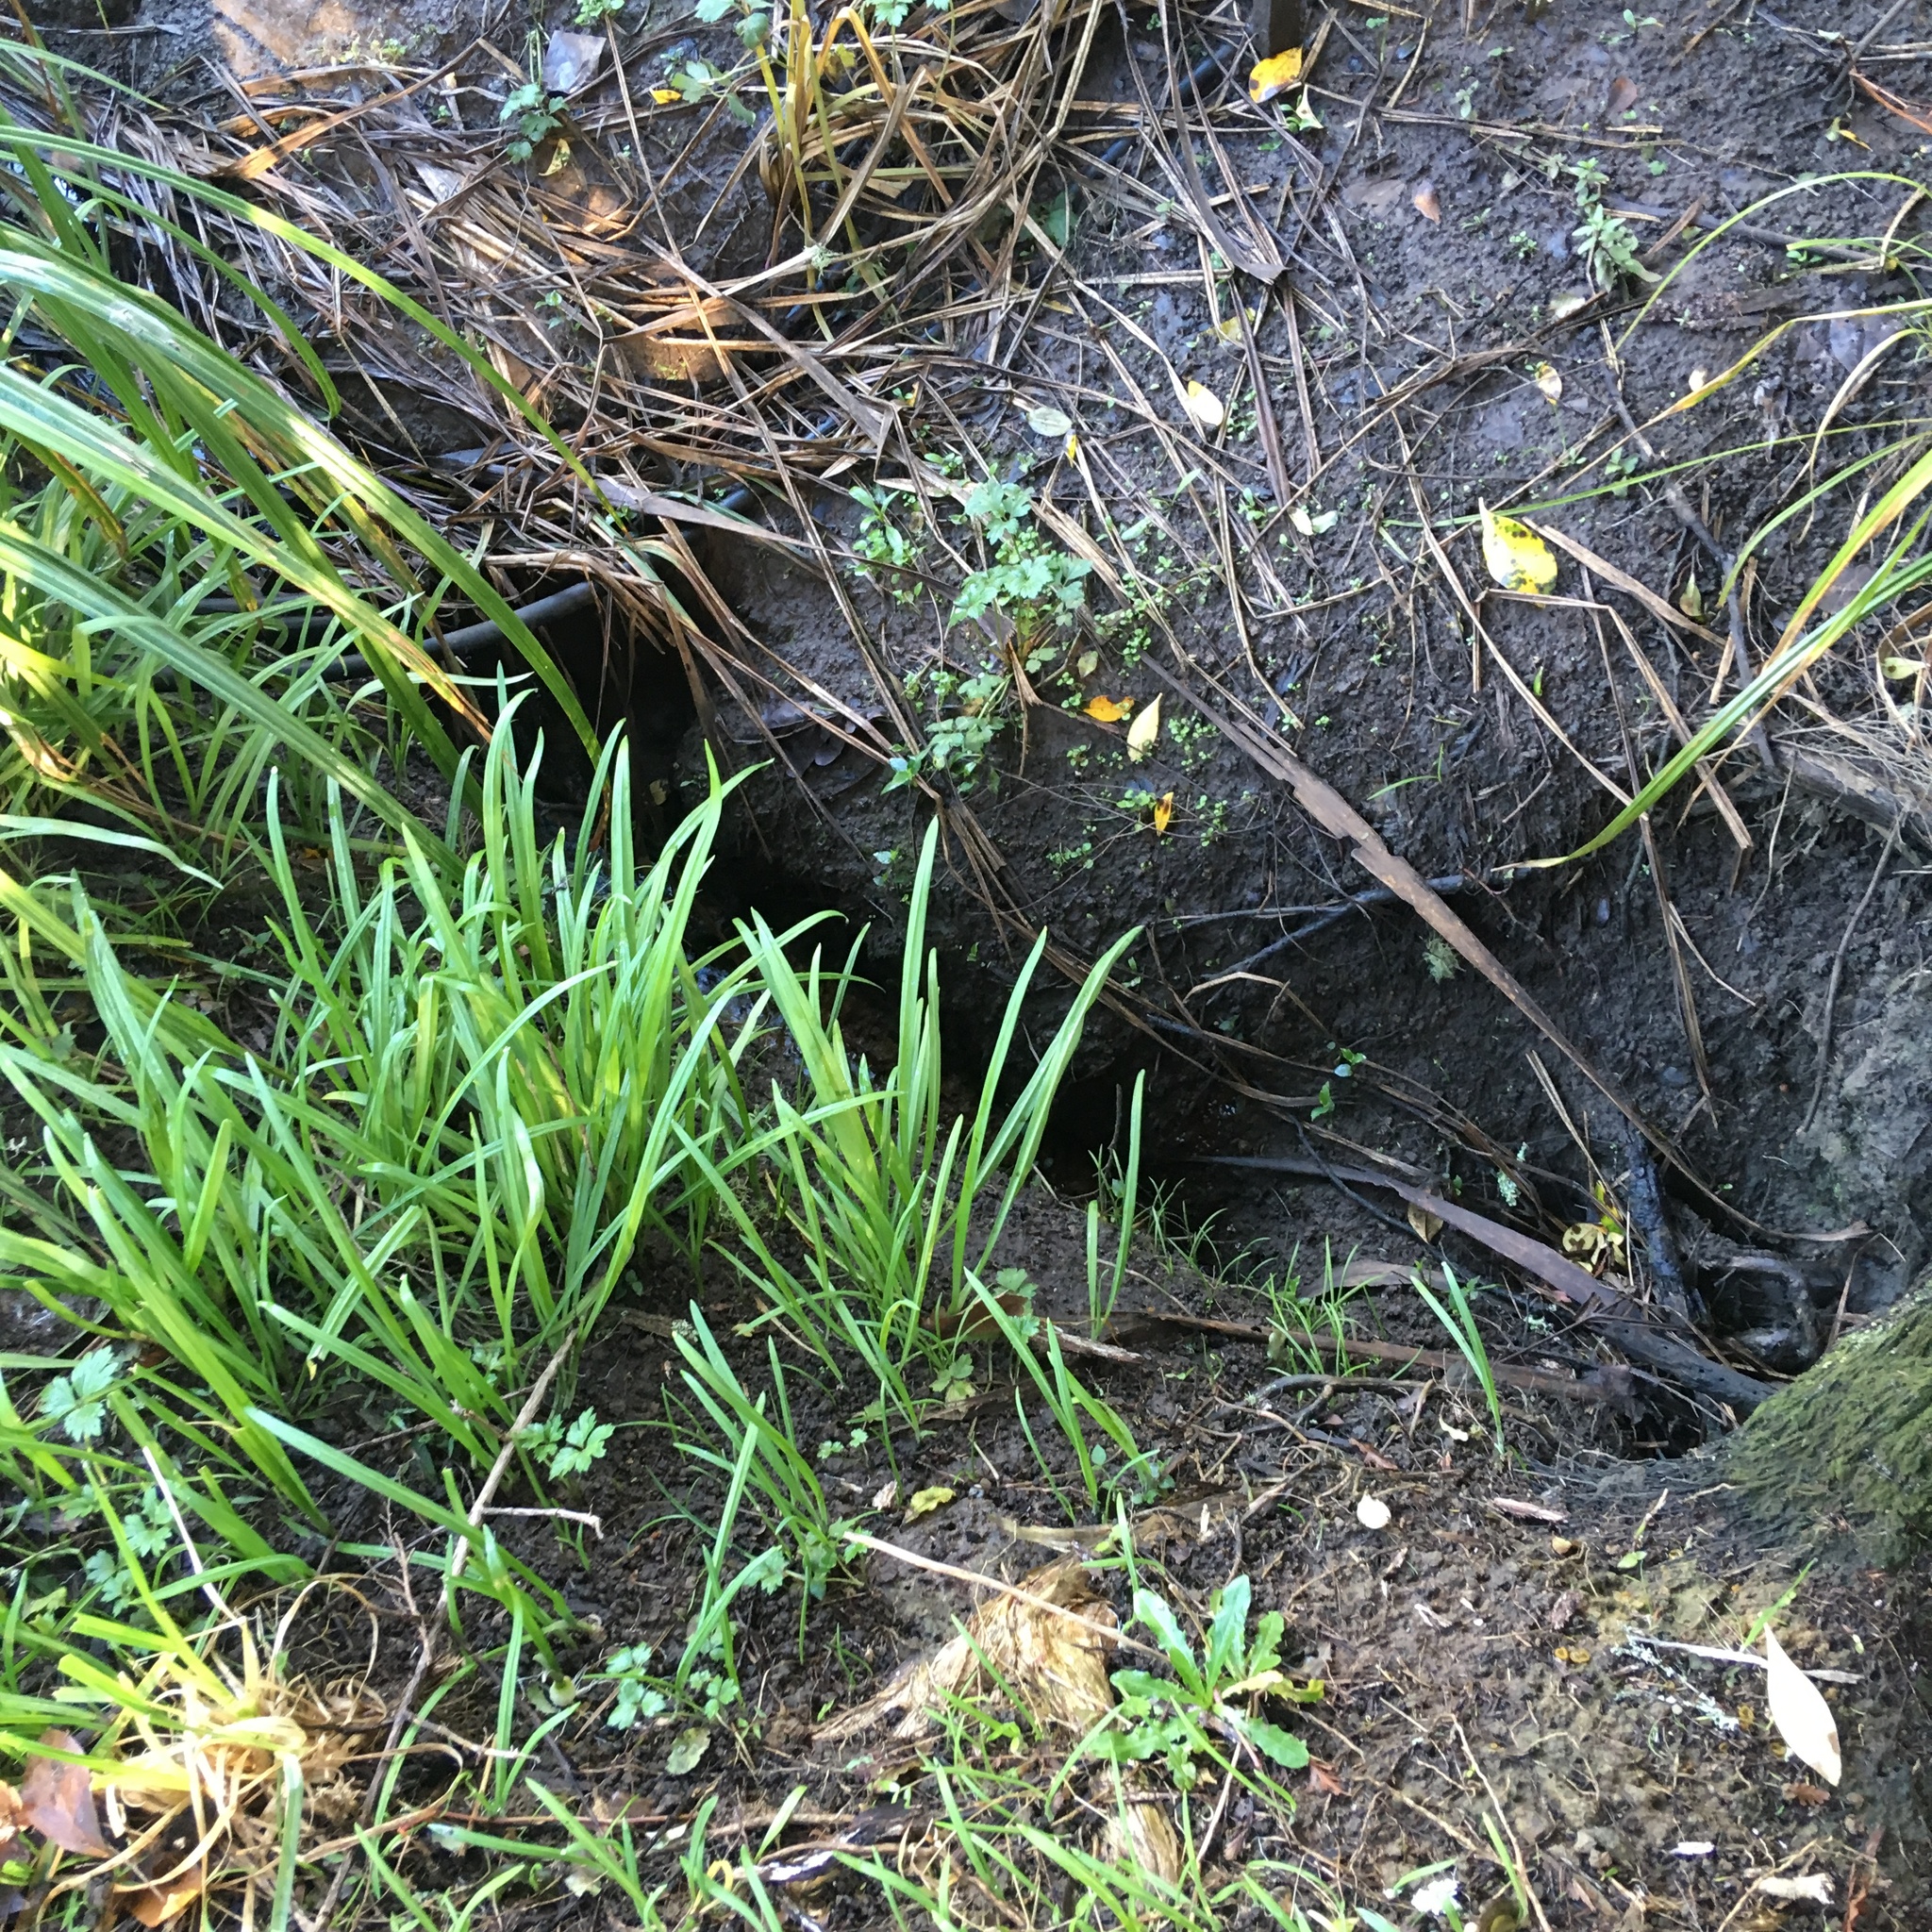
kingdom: Plantae
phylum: Tracheophyta
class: Liliopsida
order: Asparagales
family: Amaryllidaceae
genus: Allium
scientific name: Allium triquetrum
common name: Three-cornered garlic
